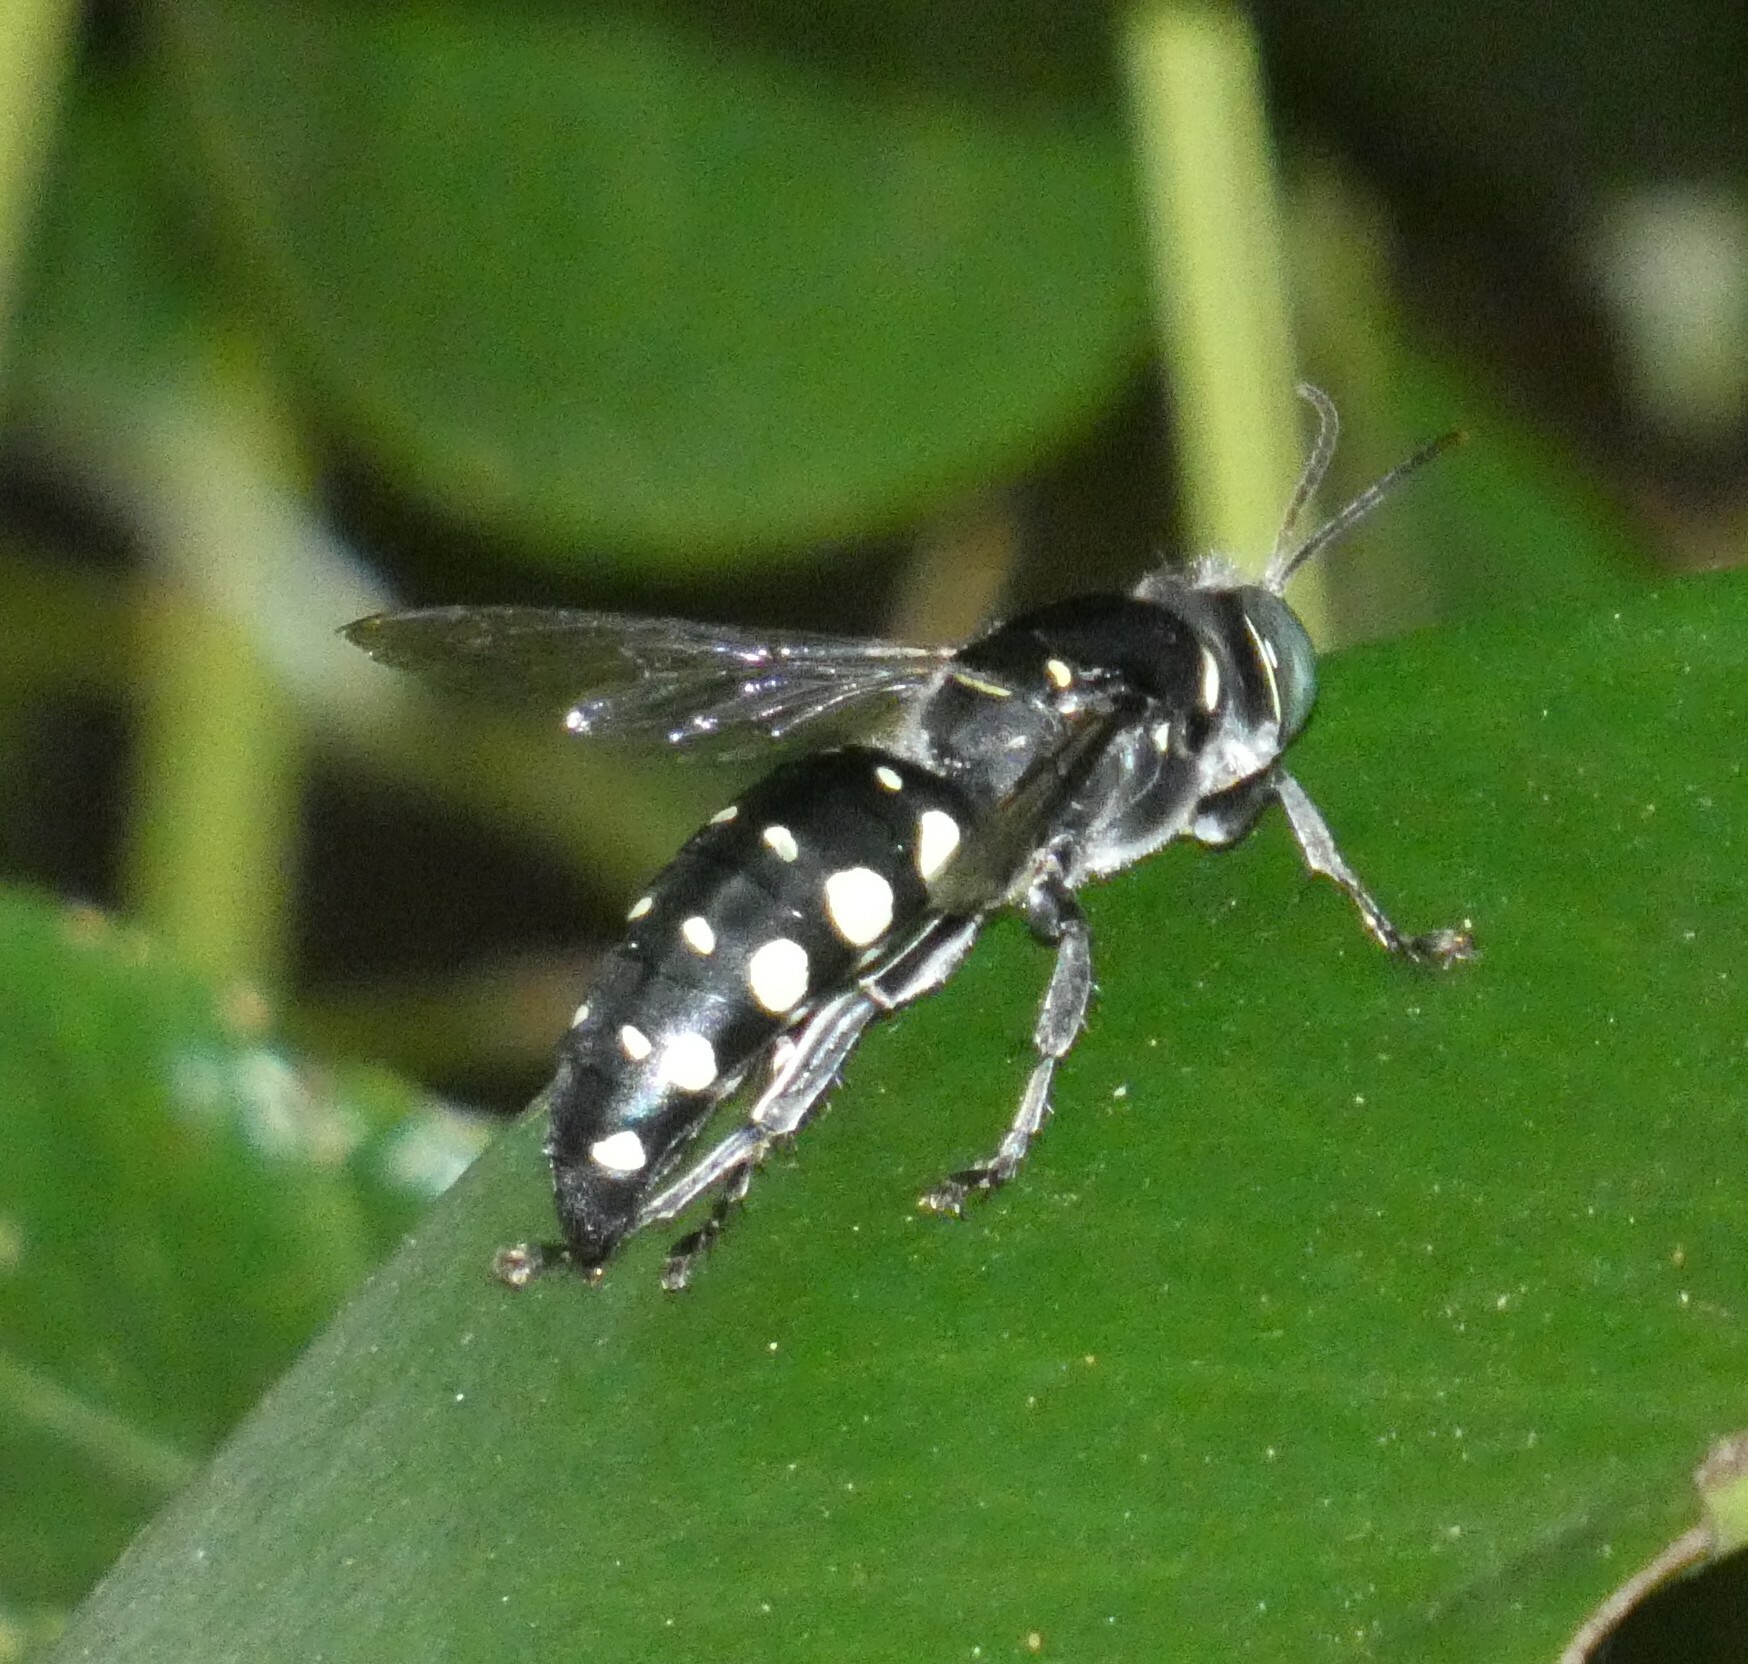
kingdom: Animalia
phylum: Arthropoda
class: Insecta
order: Hymenoptera
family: Crabronidae
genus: Stictia
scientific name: Stictia punctata
